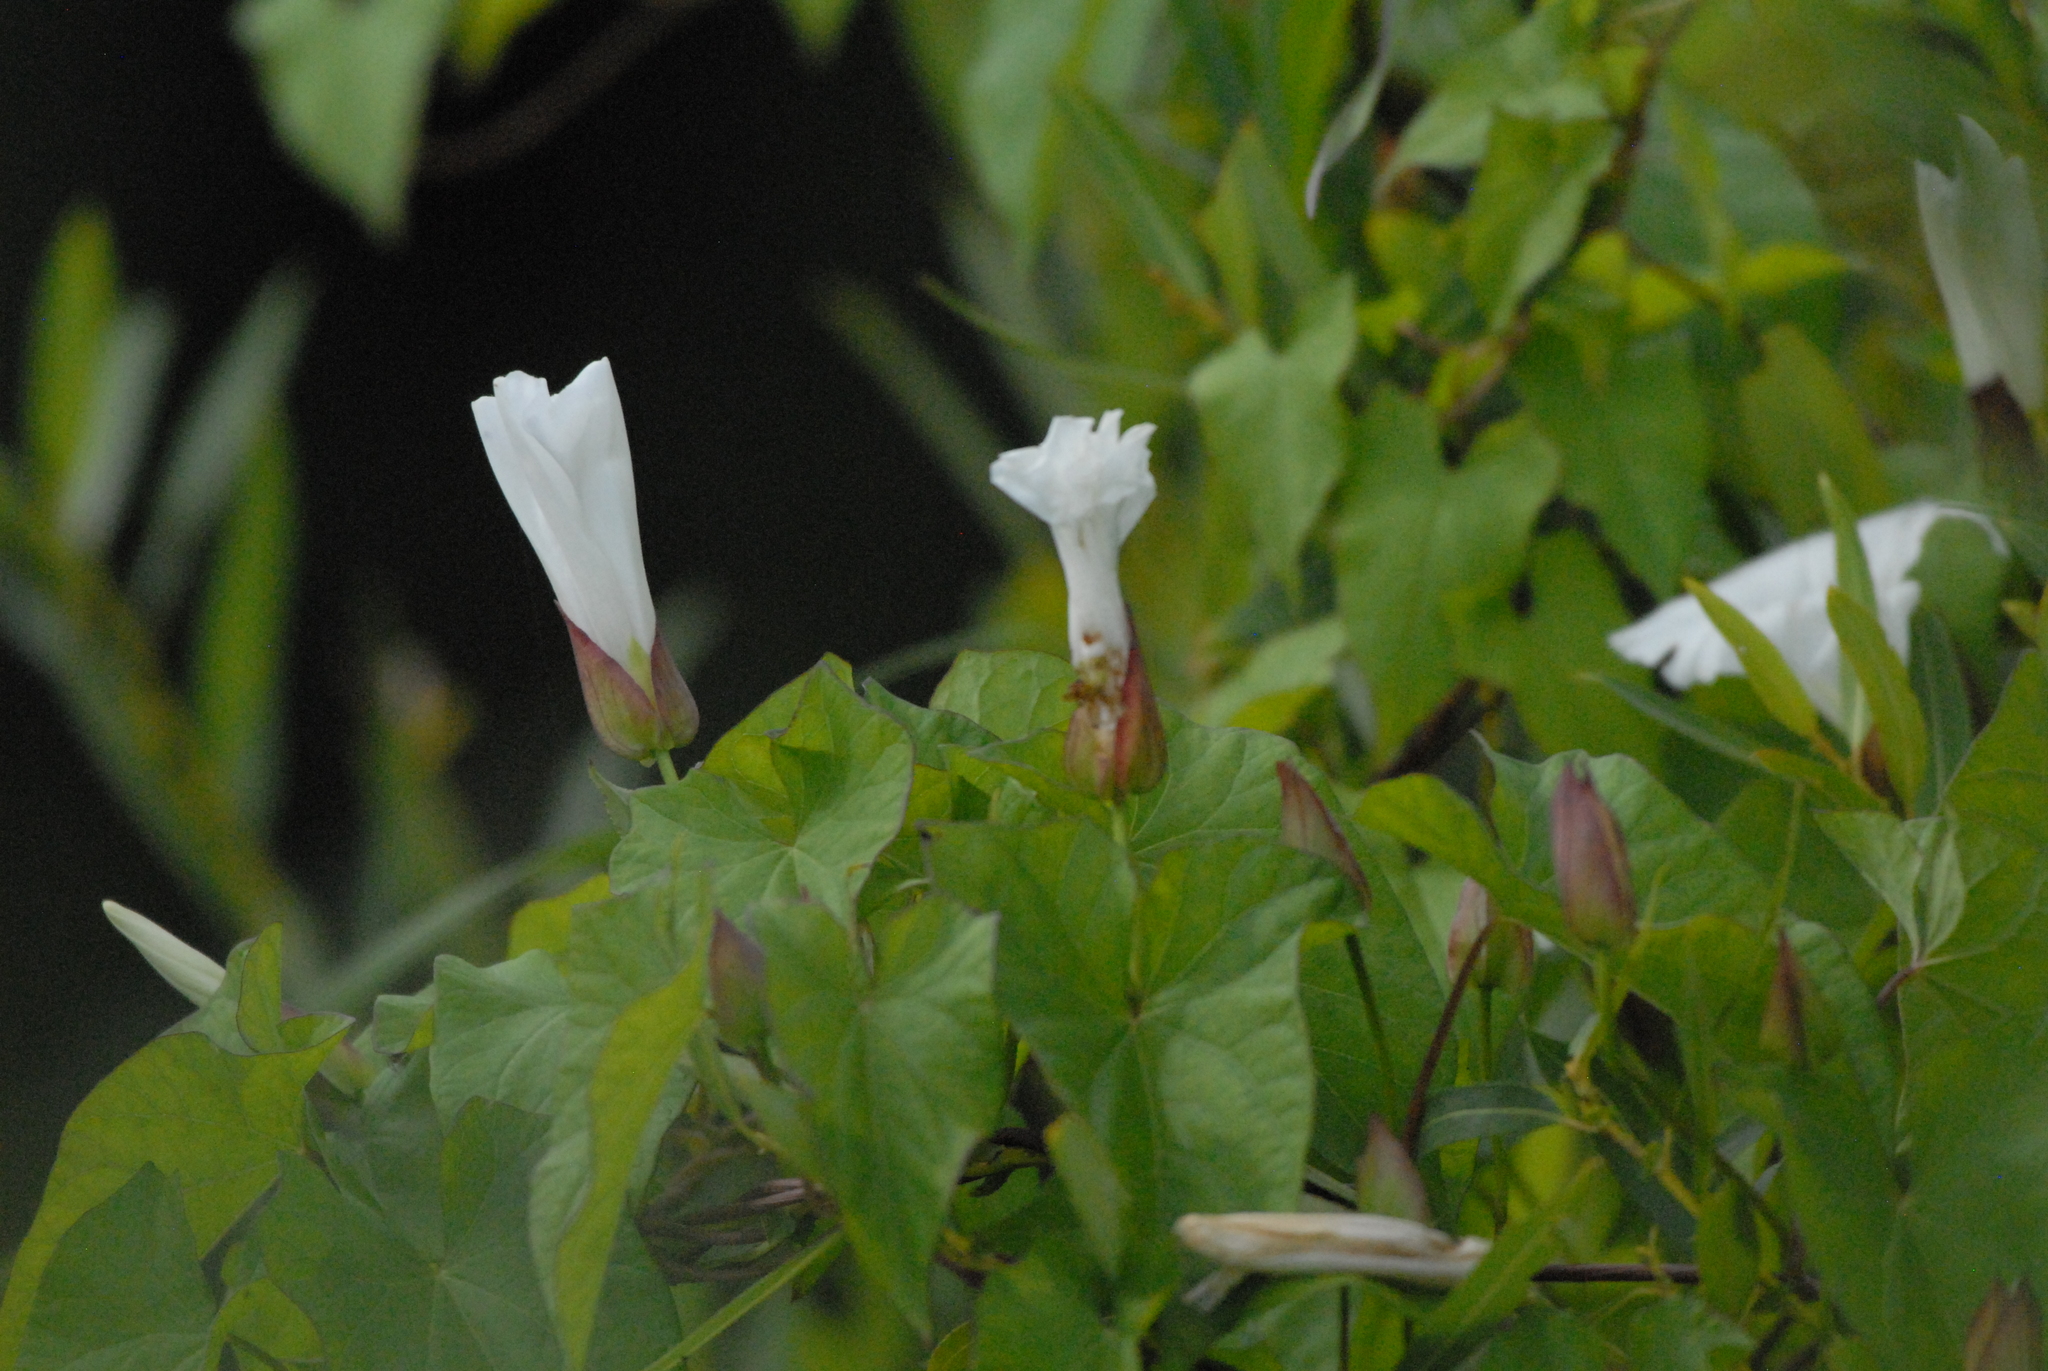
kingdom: Plantae
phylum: Tracheophyta
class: Magnoliopsida
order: Solanales
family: Convolvulaceae
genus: Calystegia
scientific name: Calystegia sepium
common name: Hedge bindweed
